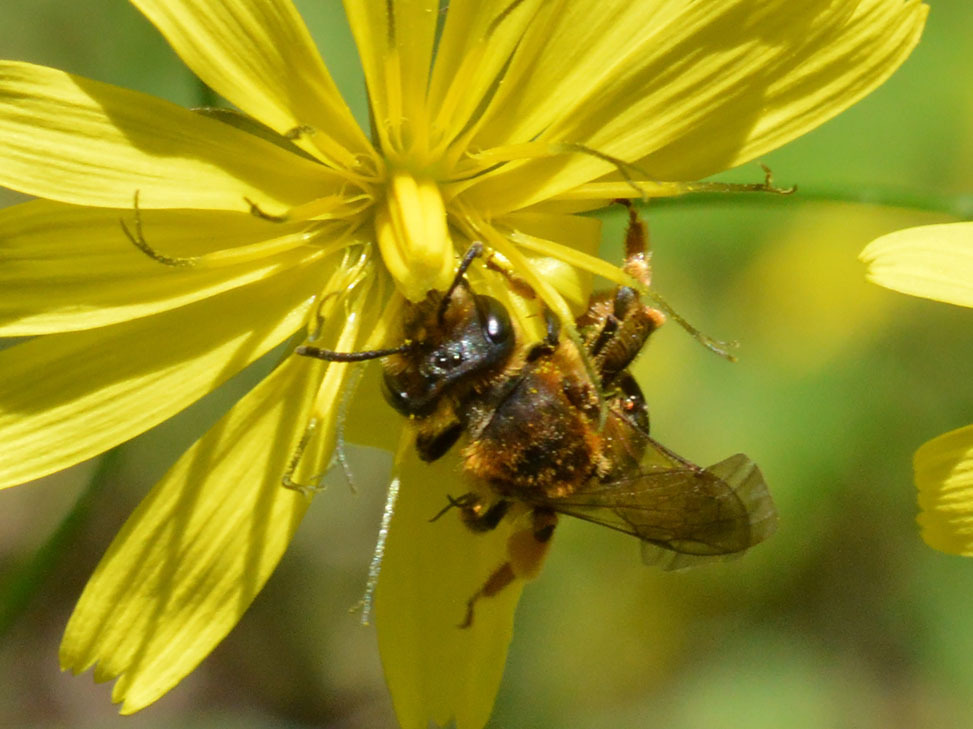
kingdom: Animalia
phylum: Arthropoda
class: Insecta
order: Hymenoptera
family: Halictidae
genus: Halictus
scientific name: Halictus rubicundus
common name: Orange-legged furrow bee
